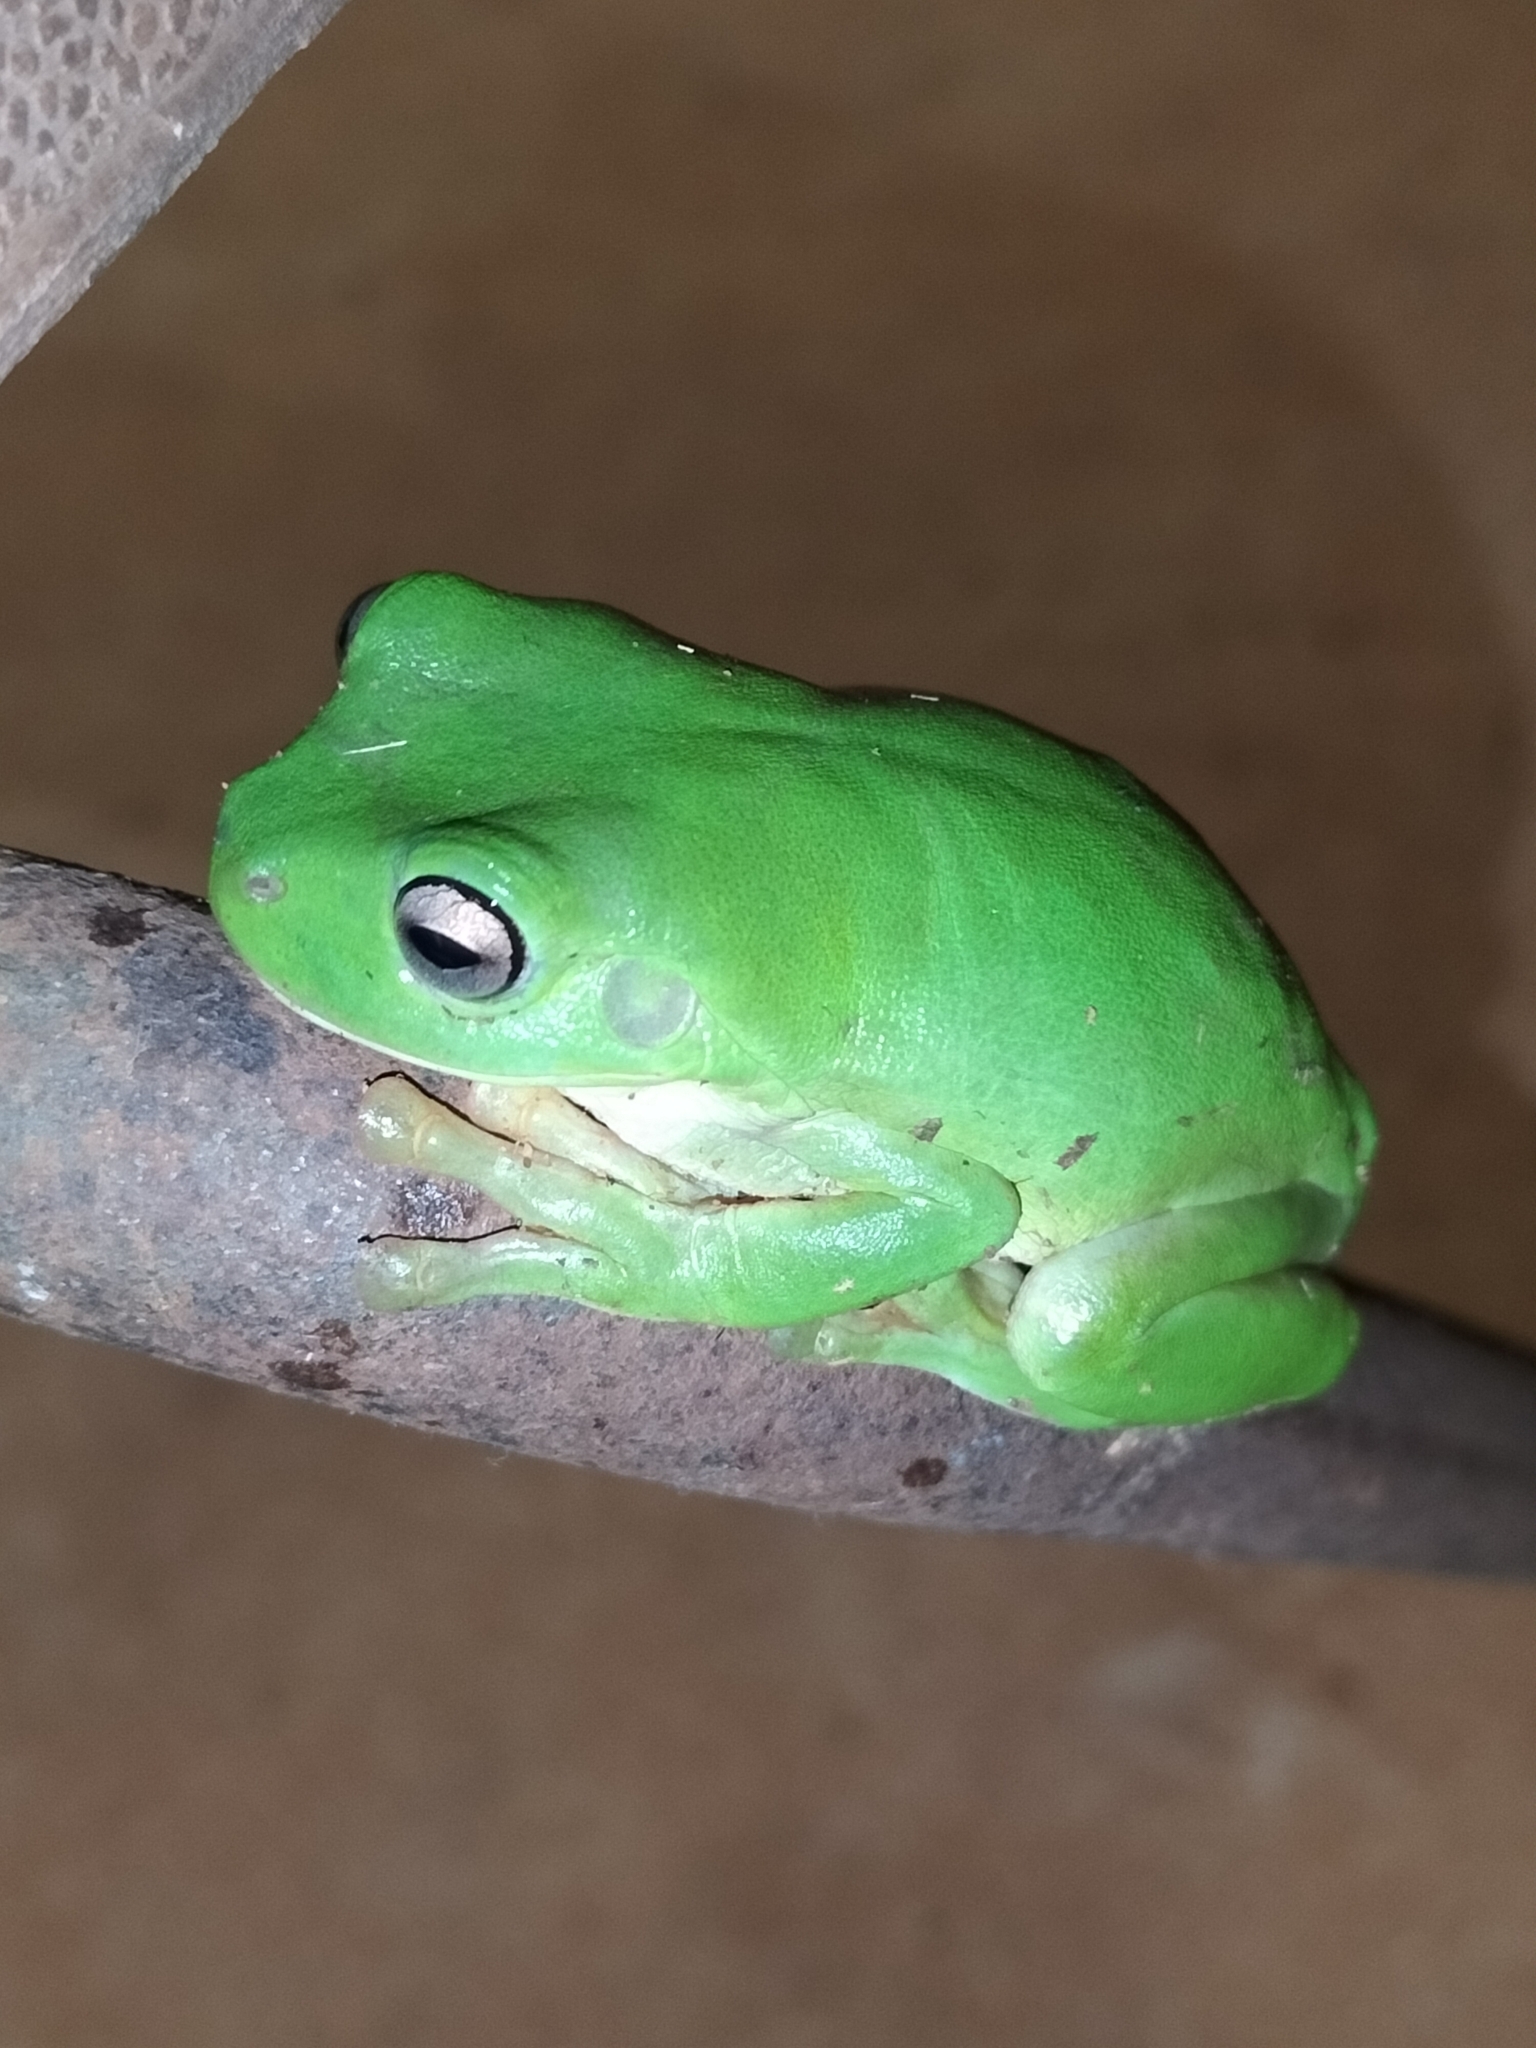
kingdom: Animalia
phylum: Chordata
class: Amphibia
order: Anura
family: Pelodryadidae
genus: Ranoidea
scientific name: Ranoidea caerulea
